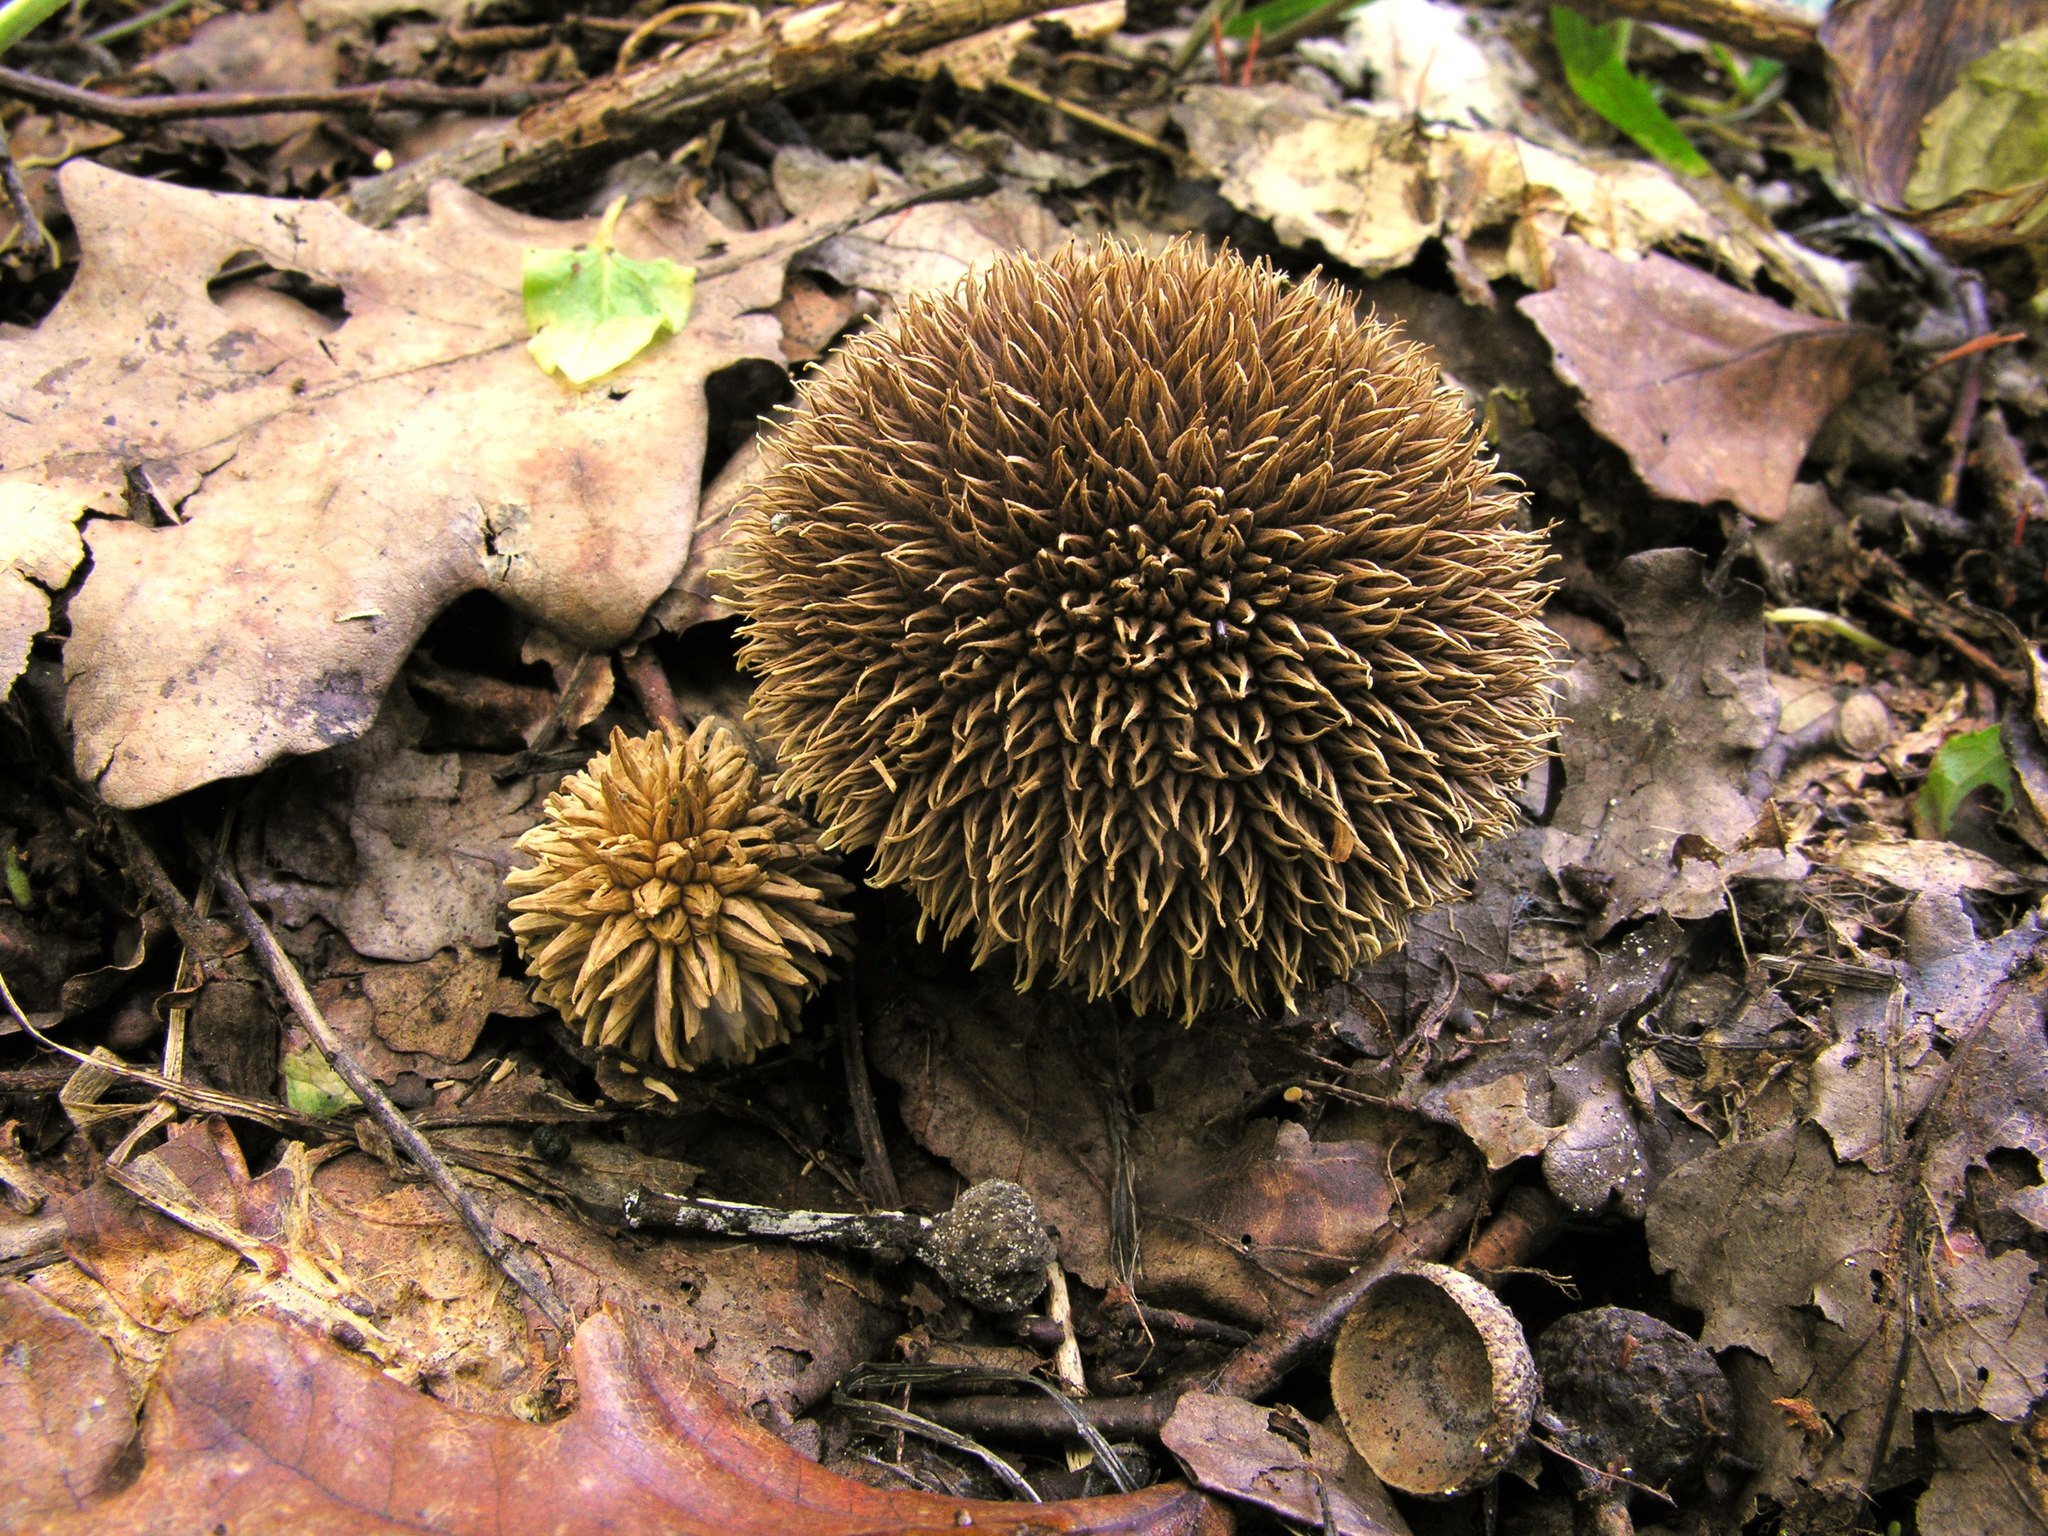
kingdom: Fungi
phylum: Basidiomycota
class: Agaricomycetes
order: Agaricales
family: Lycoperdaceae
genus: Lycoperdon
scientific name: Lycoperdon echinatum
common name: Hedgehog puffball
